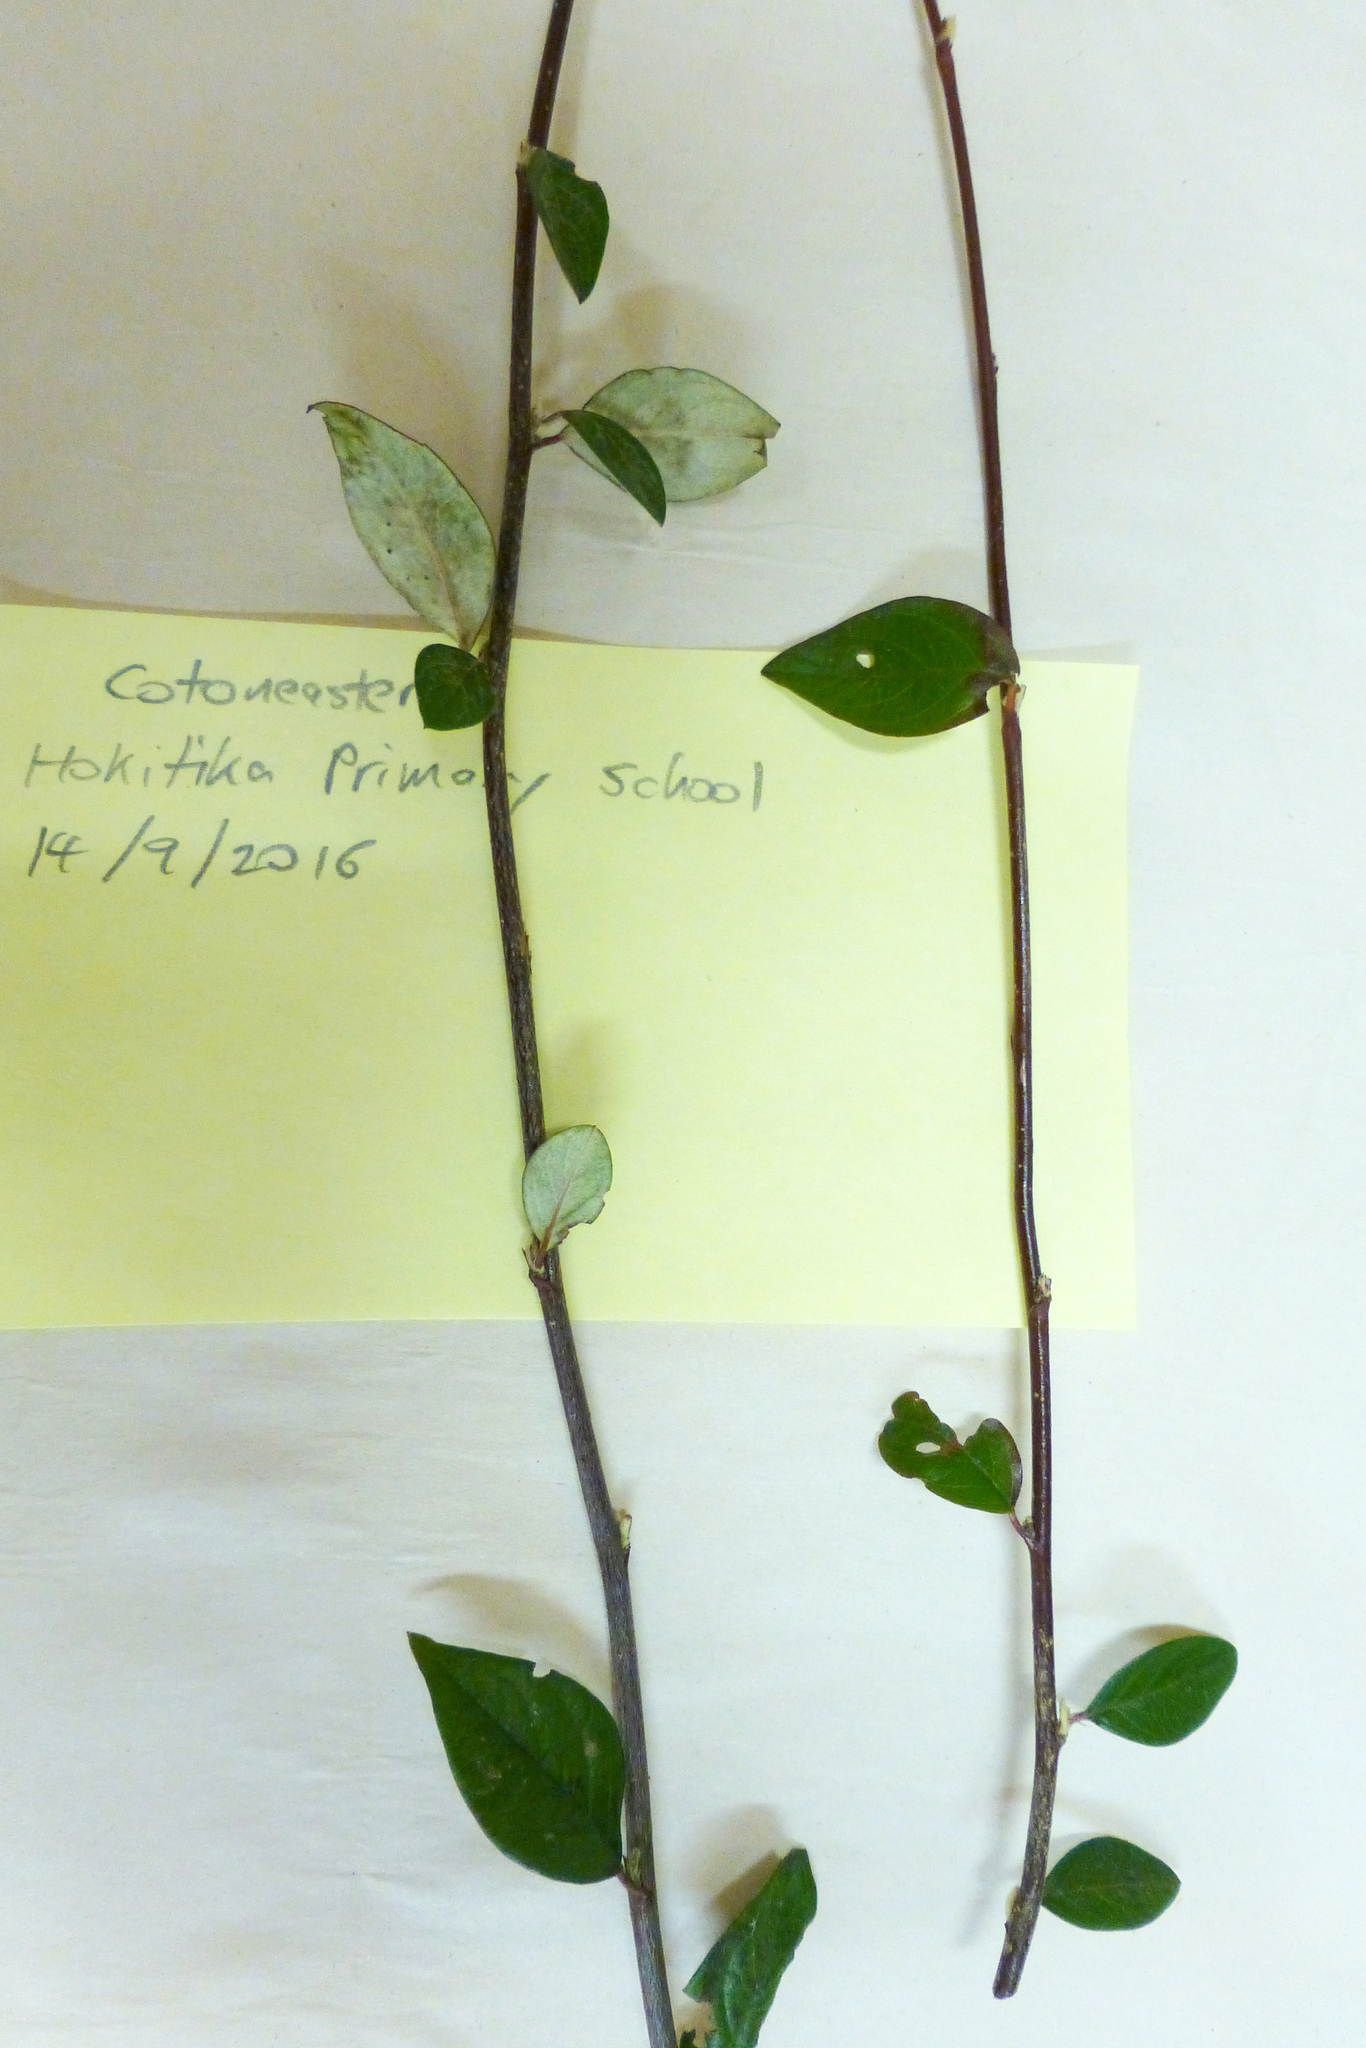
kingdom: Plantae
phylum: Tracheophyta
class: Magnoliopsida
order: Rosales
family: Rosaceae
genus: Cotoneaster
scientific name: Cotoneaster simonsii
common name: Himalayan cotoneaster
